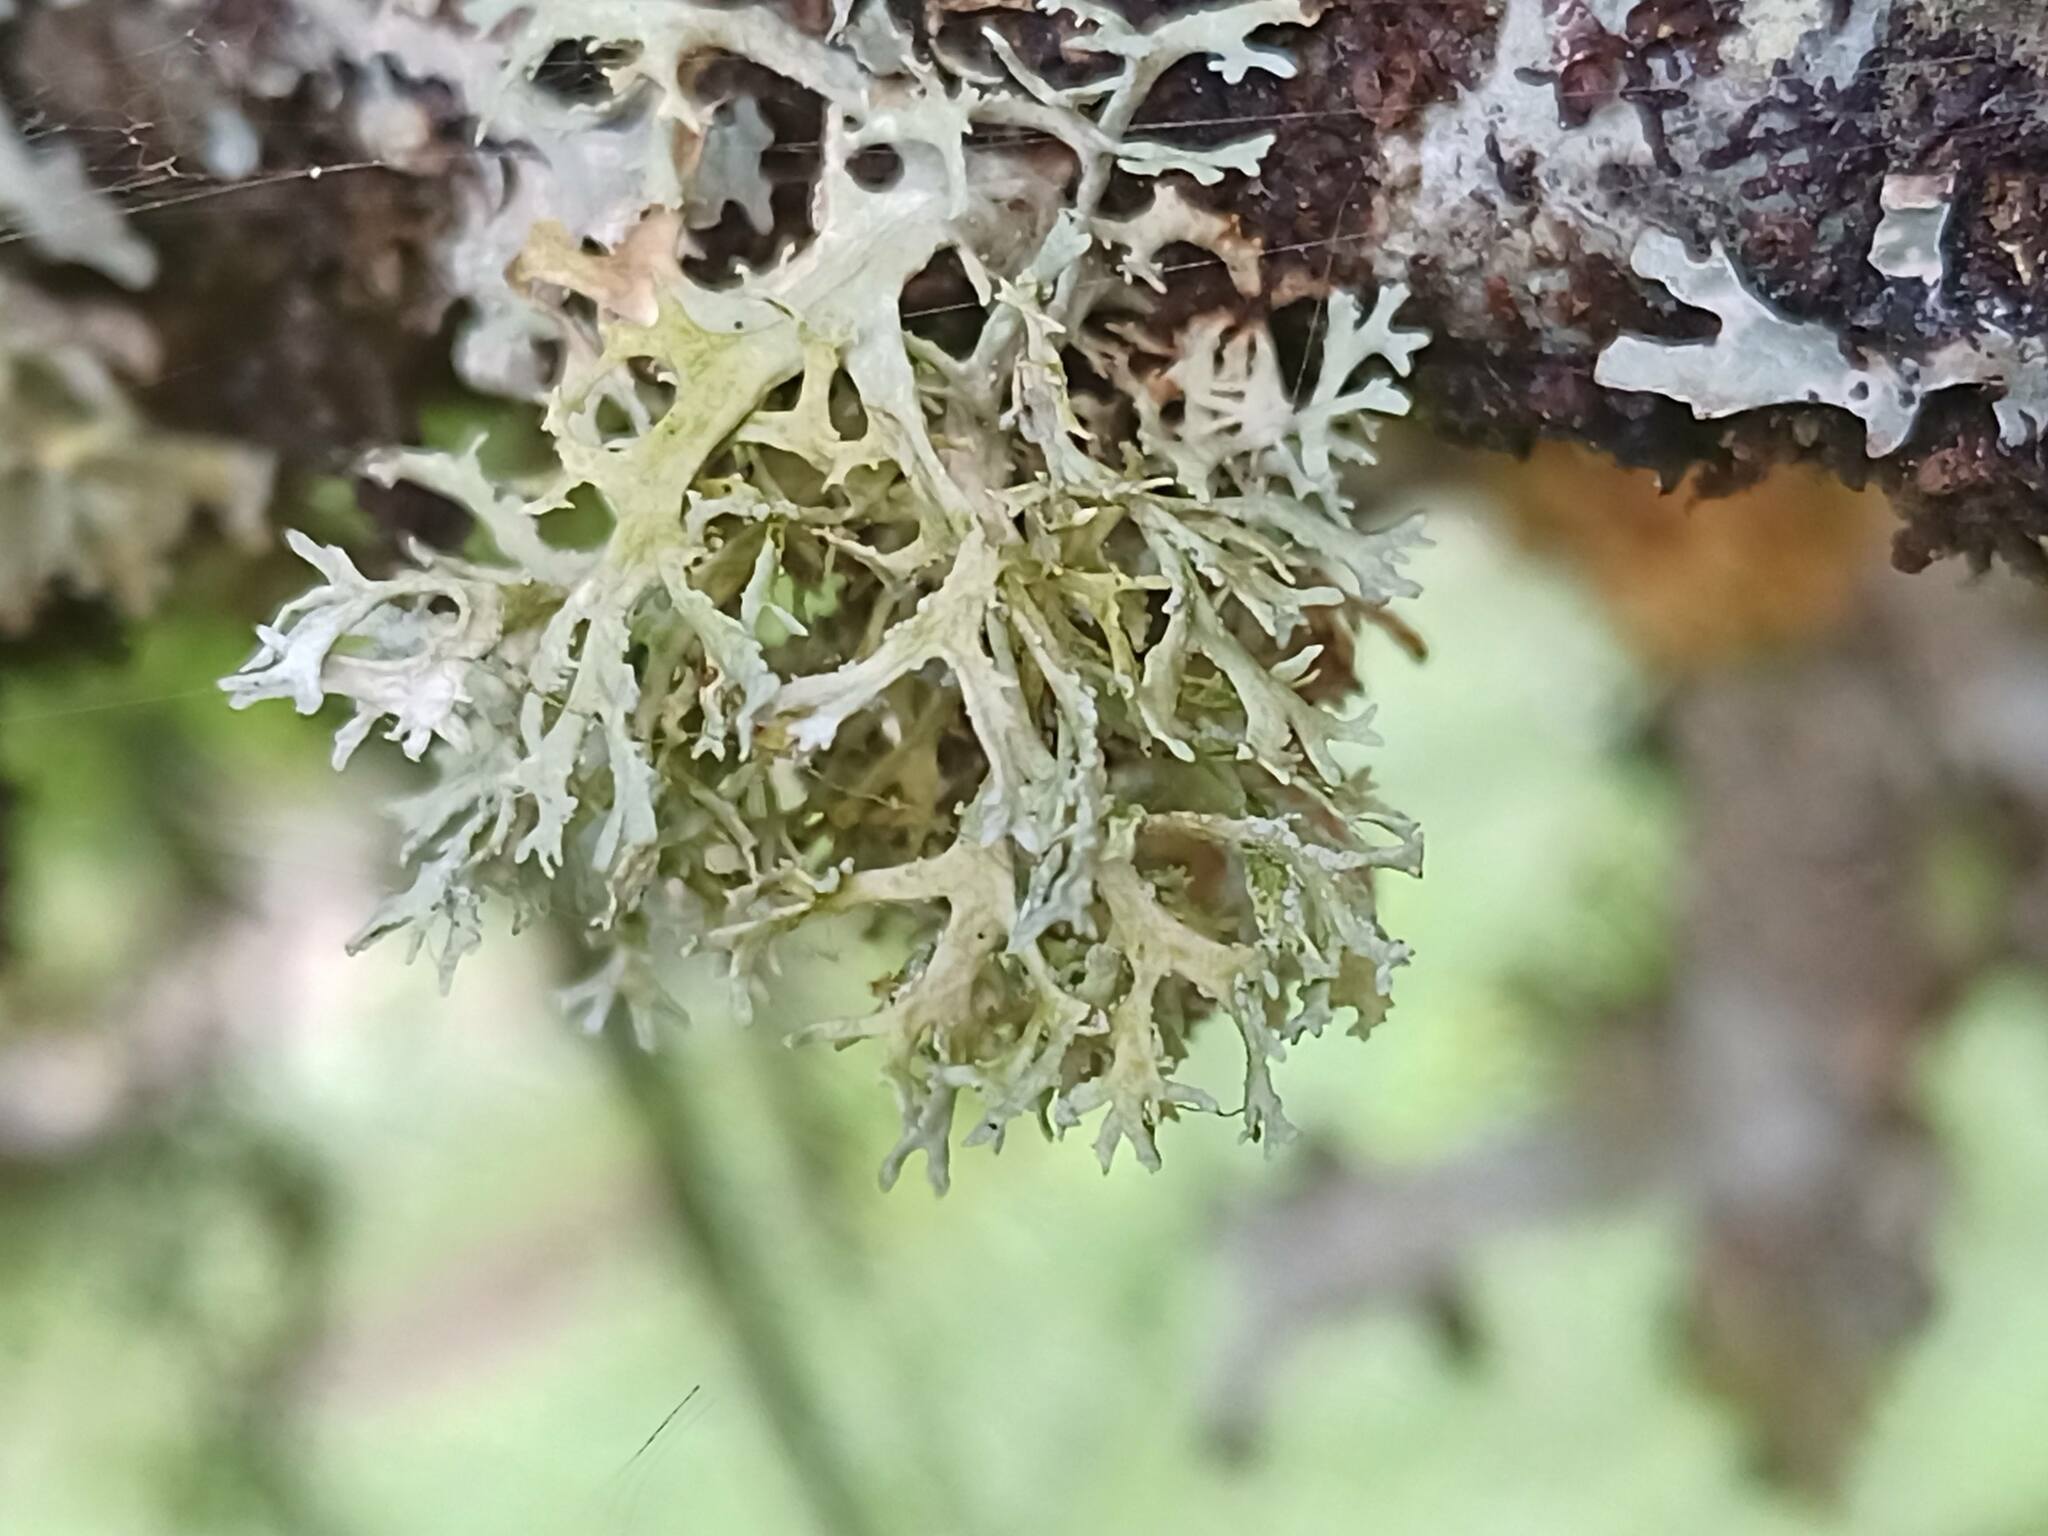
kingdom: Fungi
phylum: Ascomycota
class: Lecanoromycetes
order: Lecanorales
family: Parmeliaceae
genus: Evernia
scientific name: Evernia prunastri
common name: Oak moss
